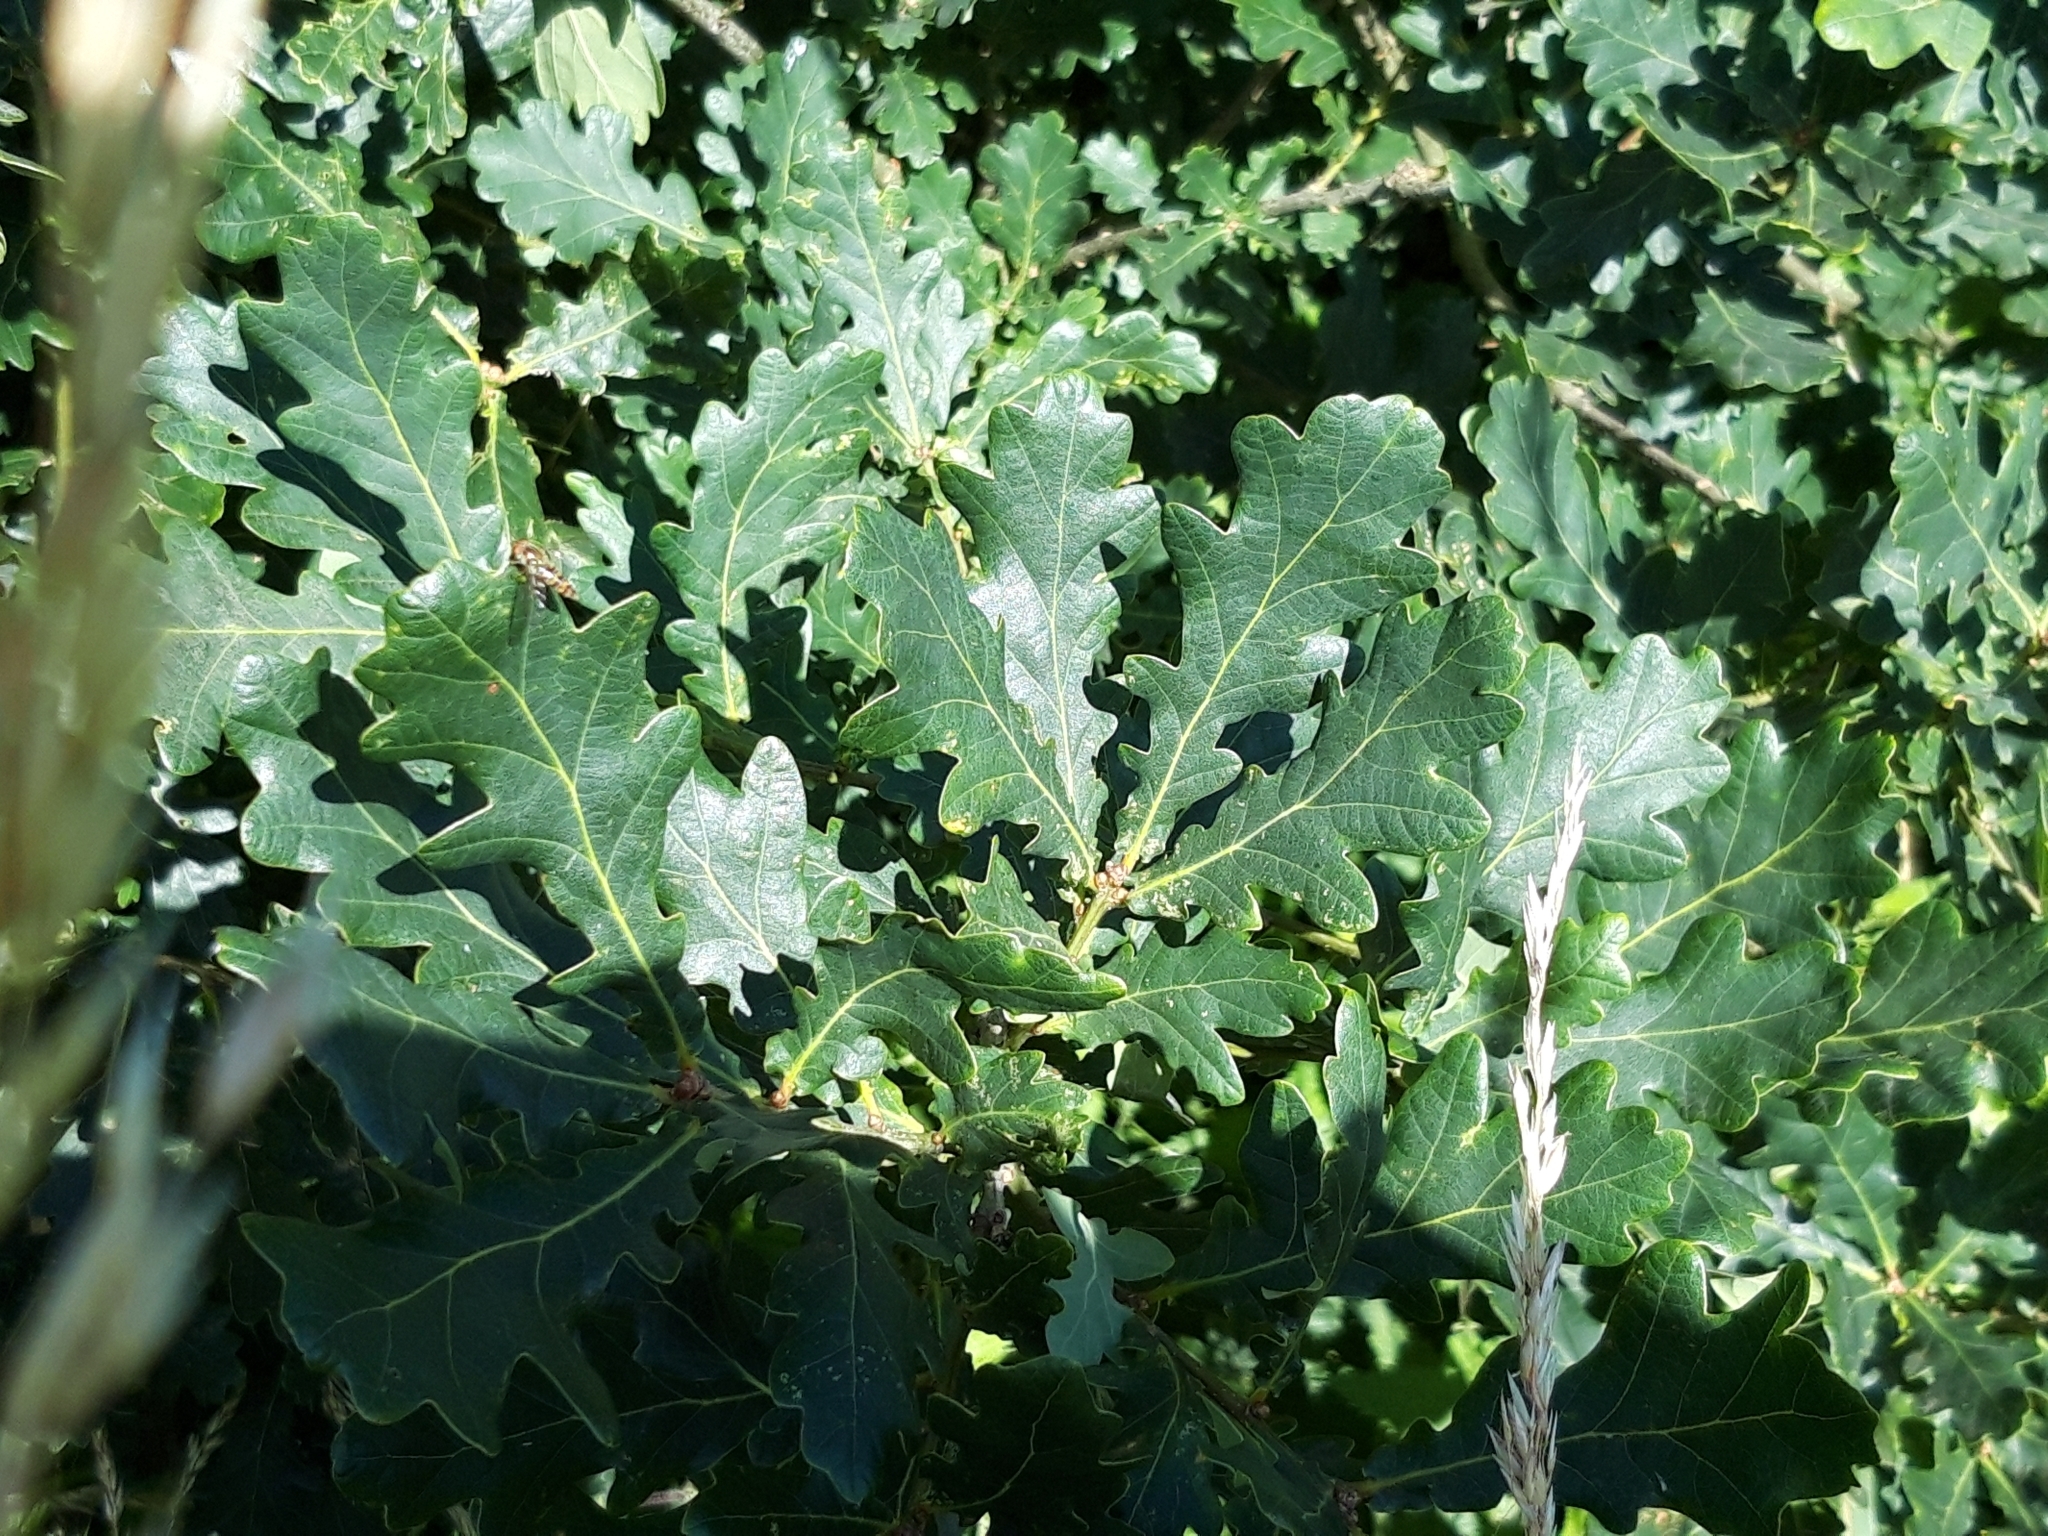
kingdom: Plantae
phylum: Tracheophyta
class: Magnoliopsida
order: Fagales
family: Fagaceae
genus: Quercus
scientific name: Quercus robur
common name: Pedunculate oak
